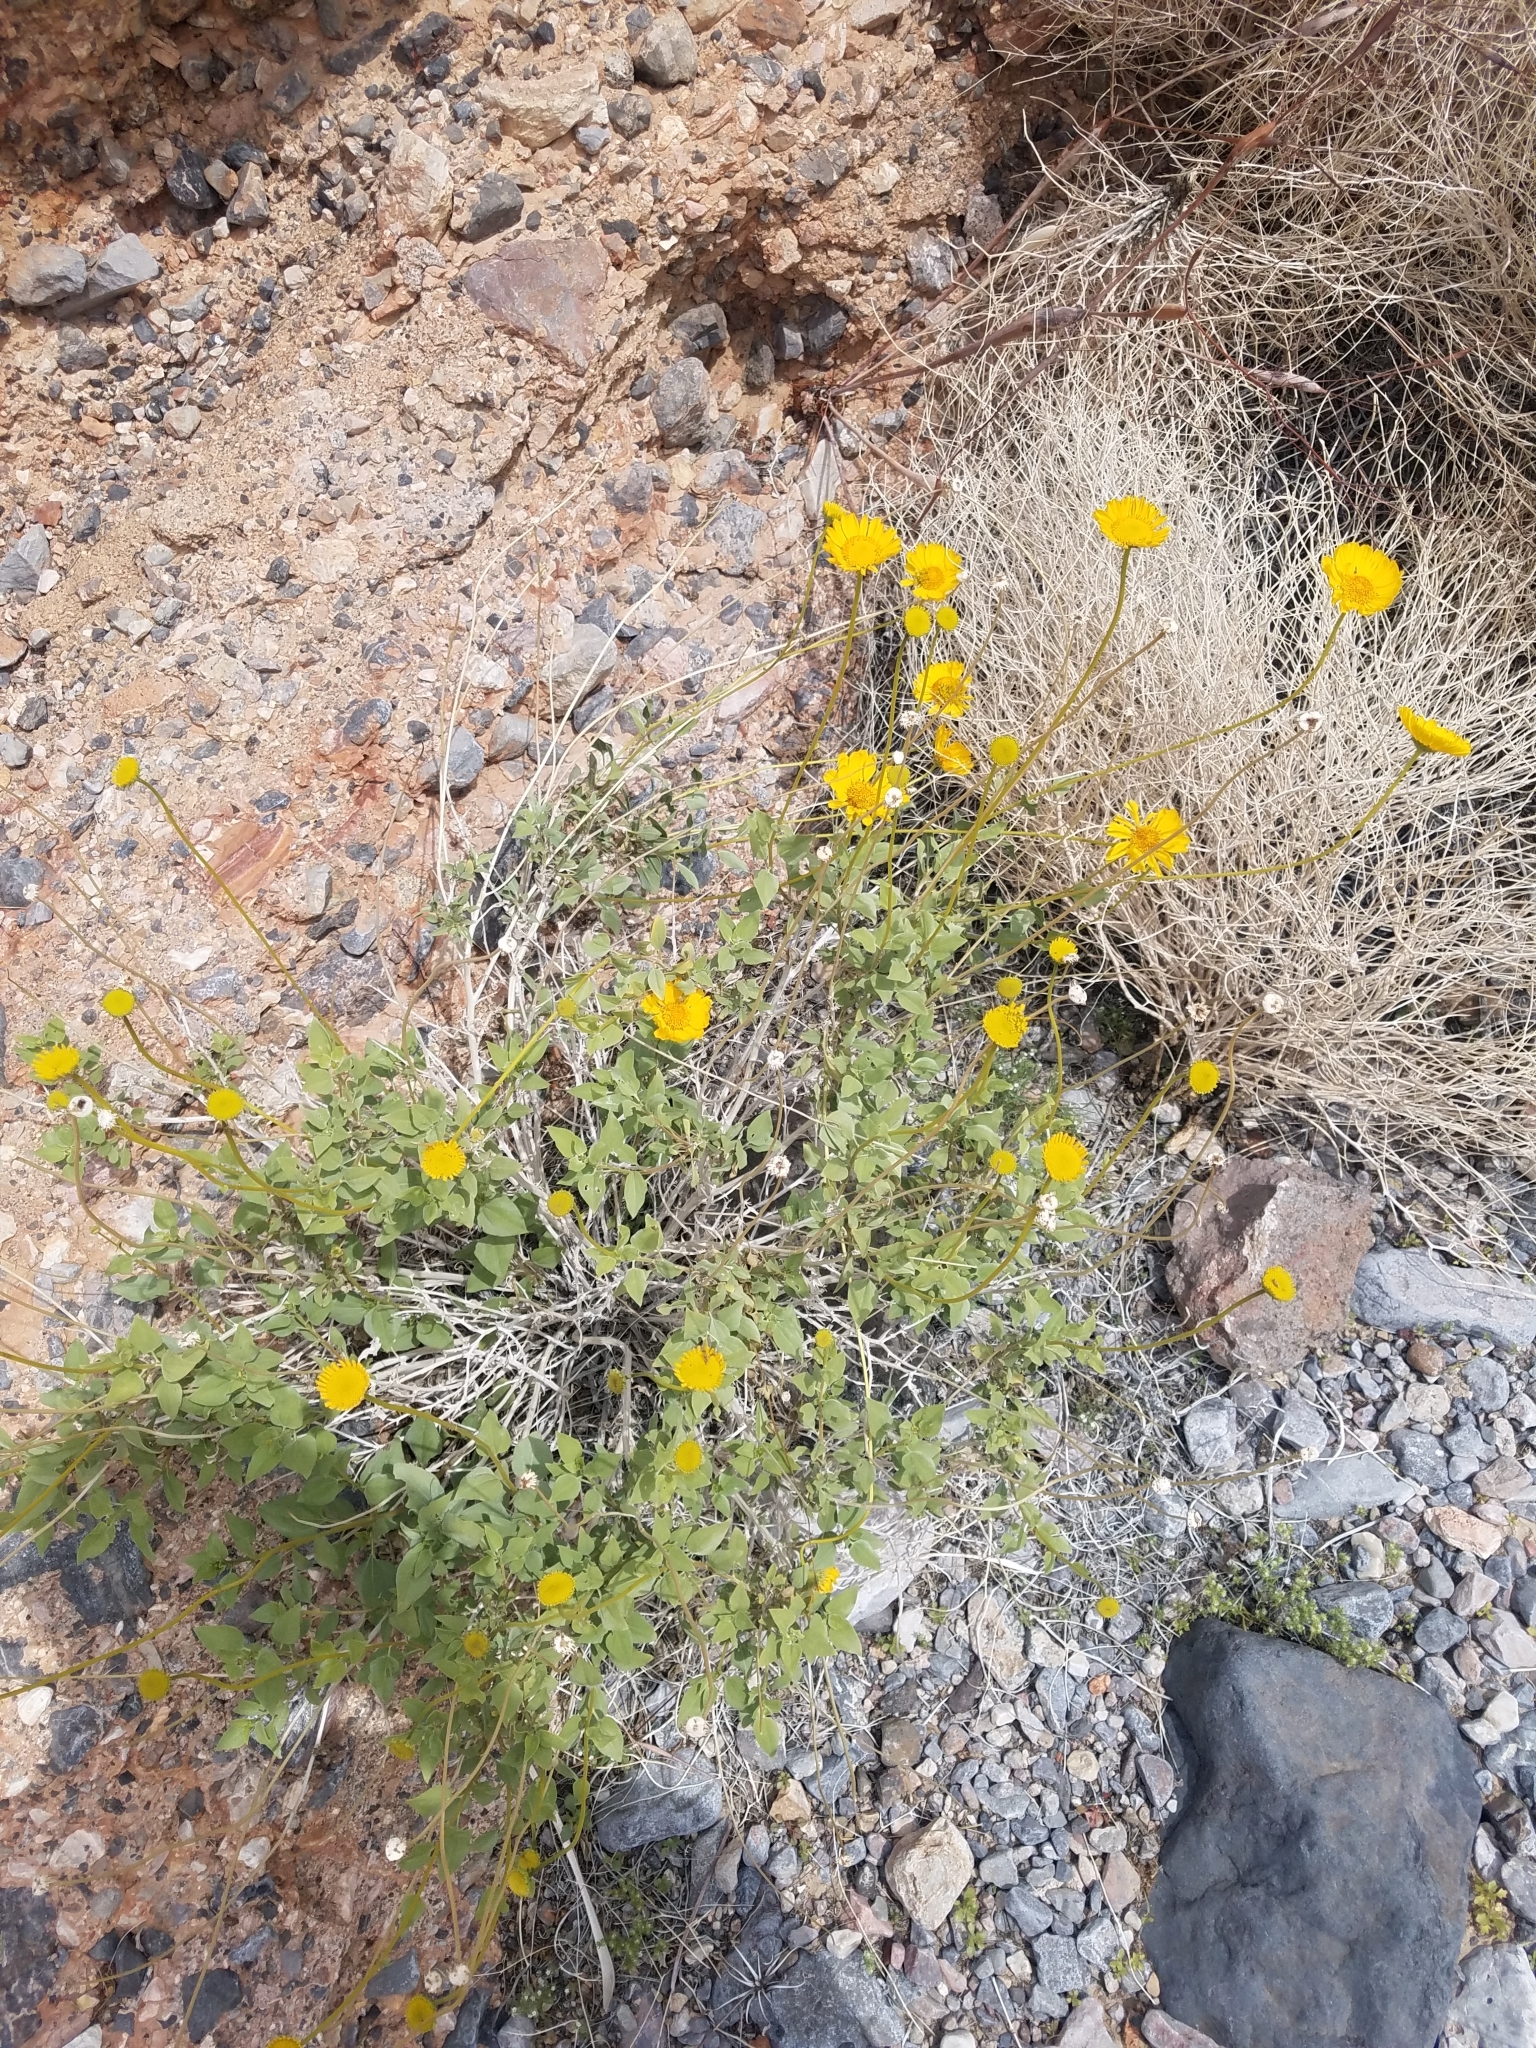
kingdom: Plantae
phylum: Tracheophyta
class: Magnoliopsida
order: Asterales
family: Asteraceae
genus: Encelia
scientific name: Encelia actoni
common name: Acton encelia
